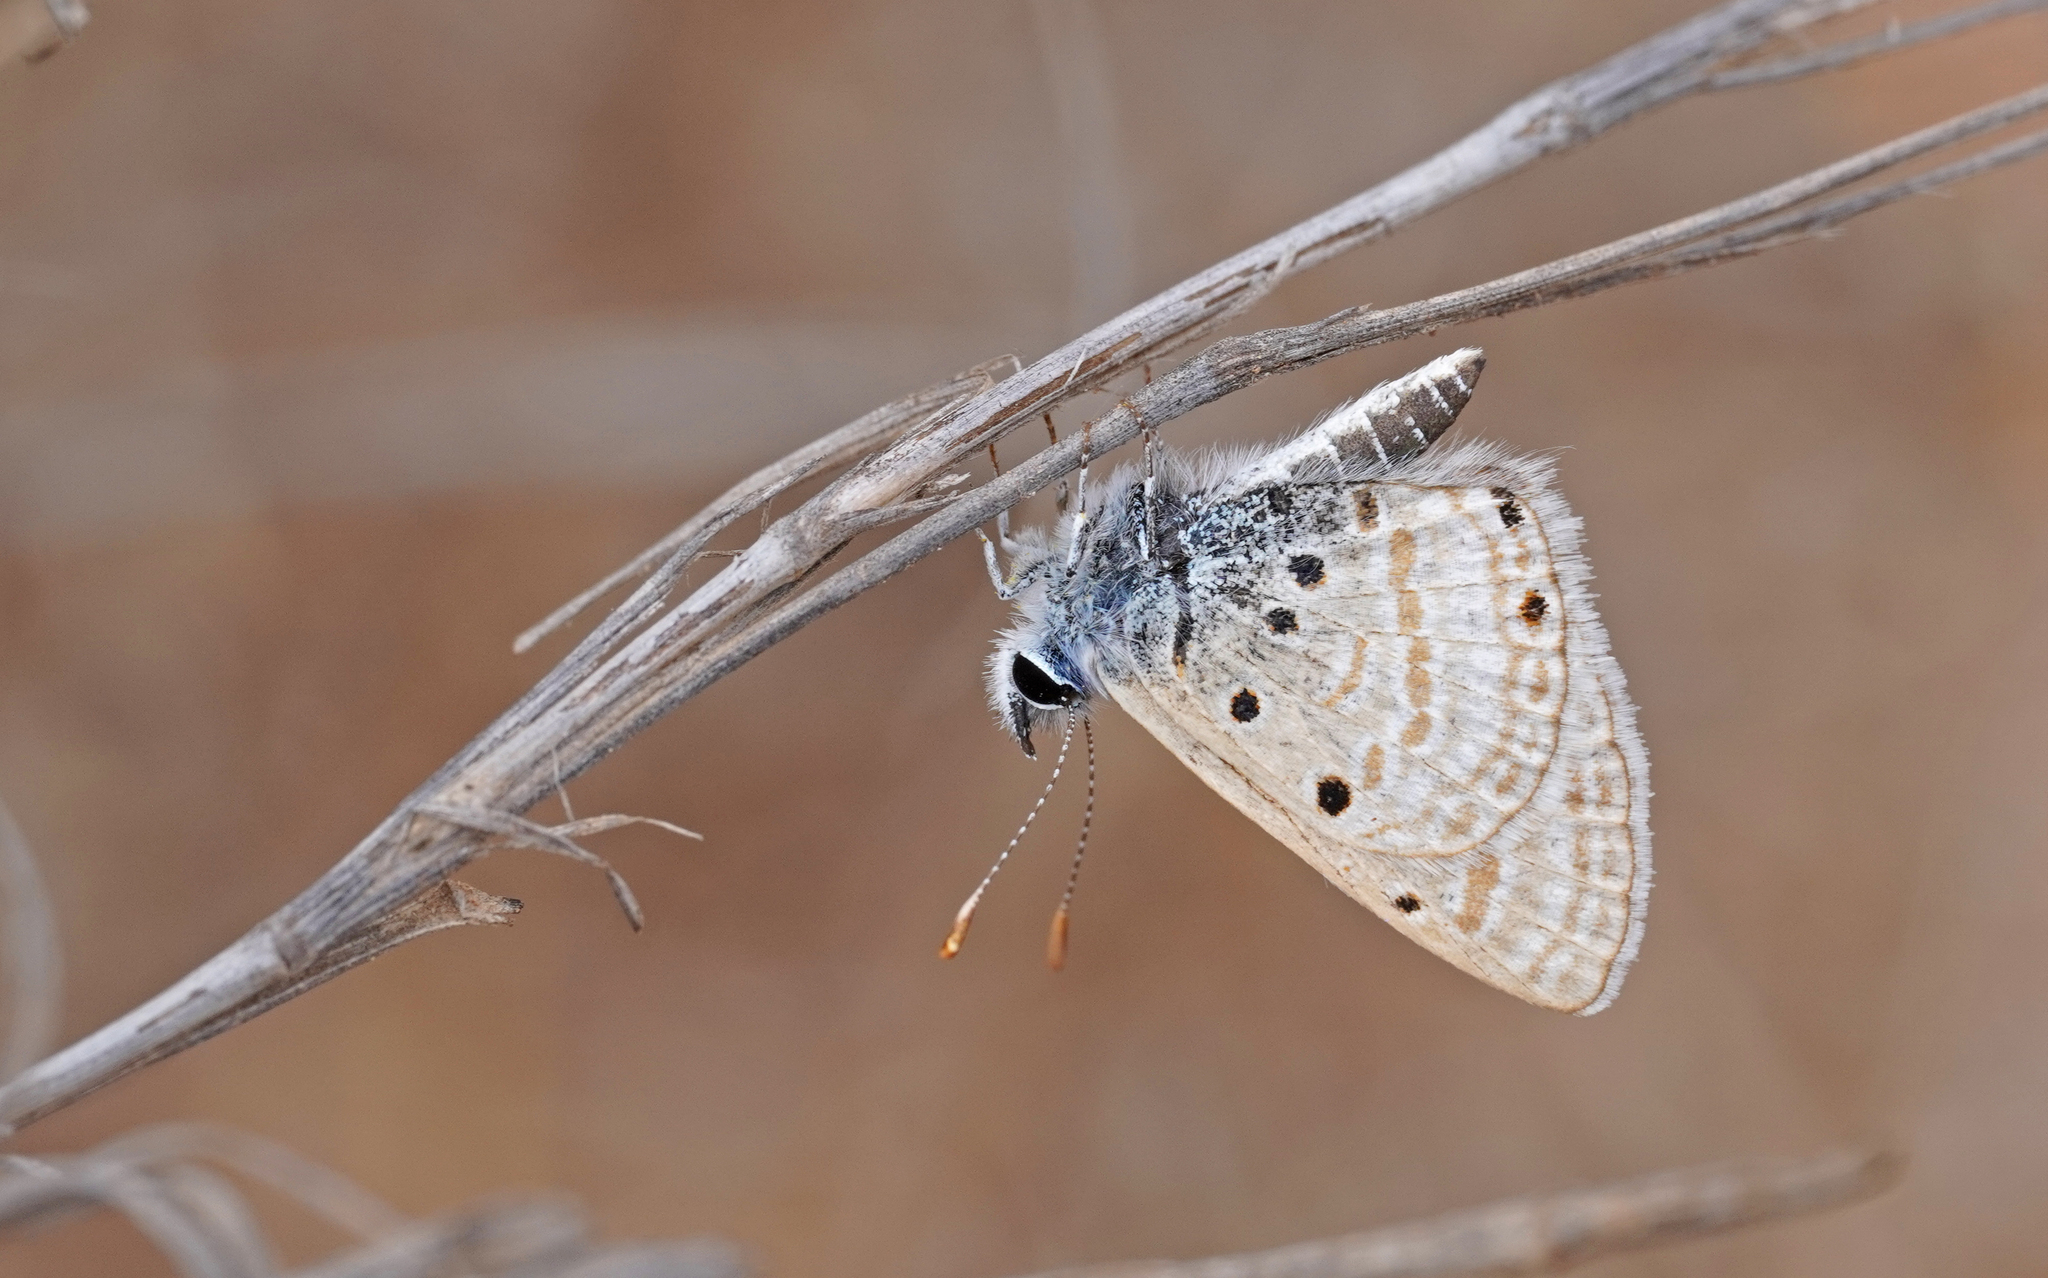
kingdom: Animalia
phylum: Arthropoda
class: Insecta
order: Lepidoptera
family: Lycaenidae
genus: Azanus
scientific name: Azanus ubaldus
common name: Desert babul blue
